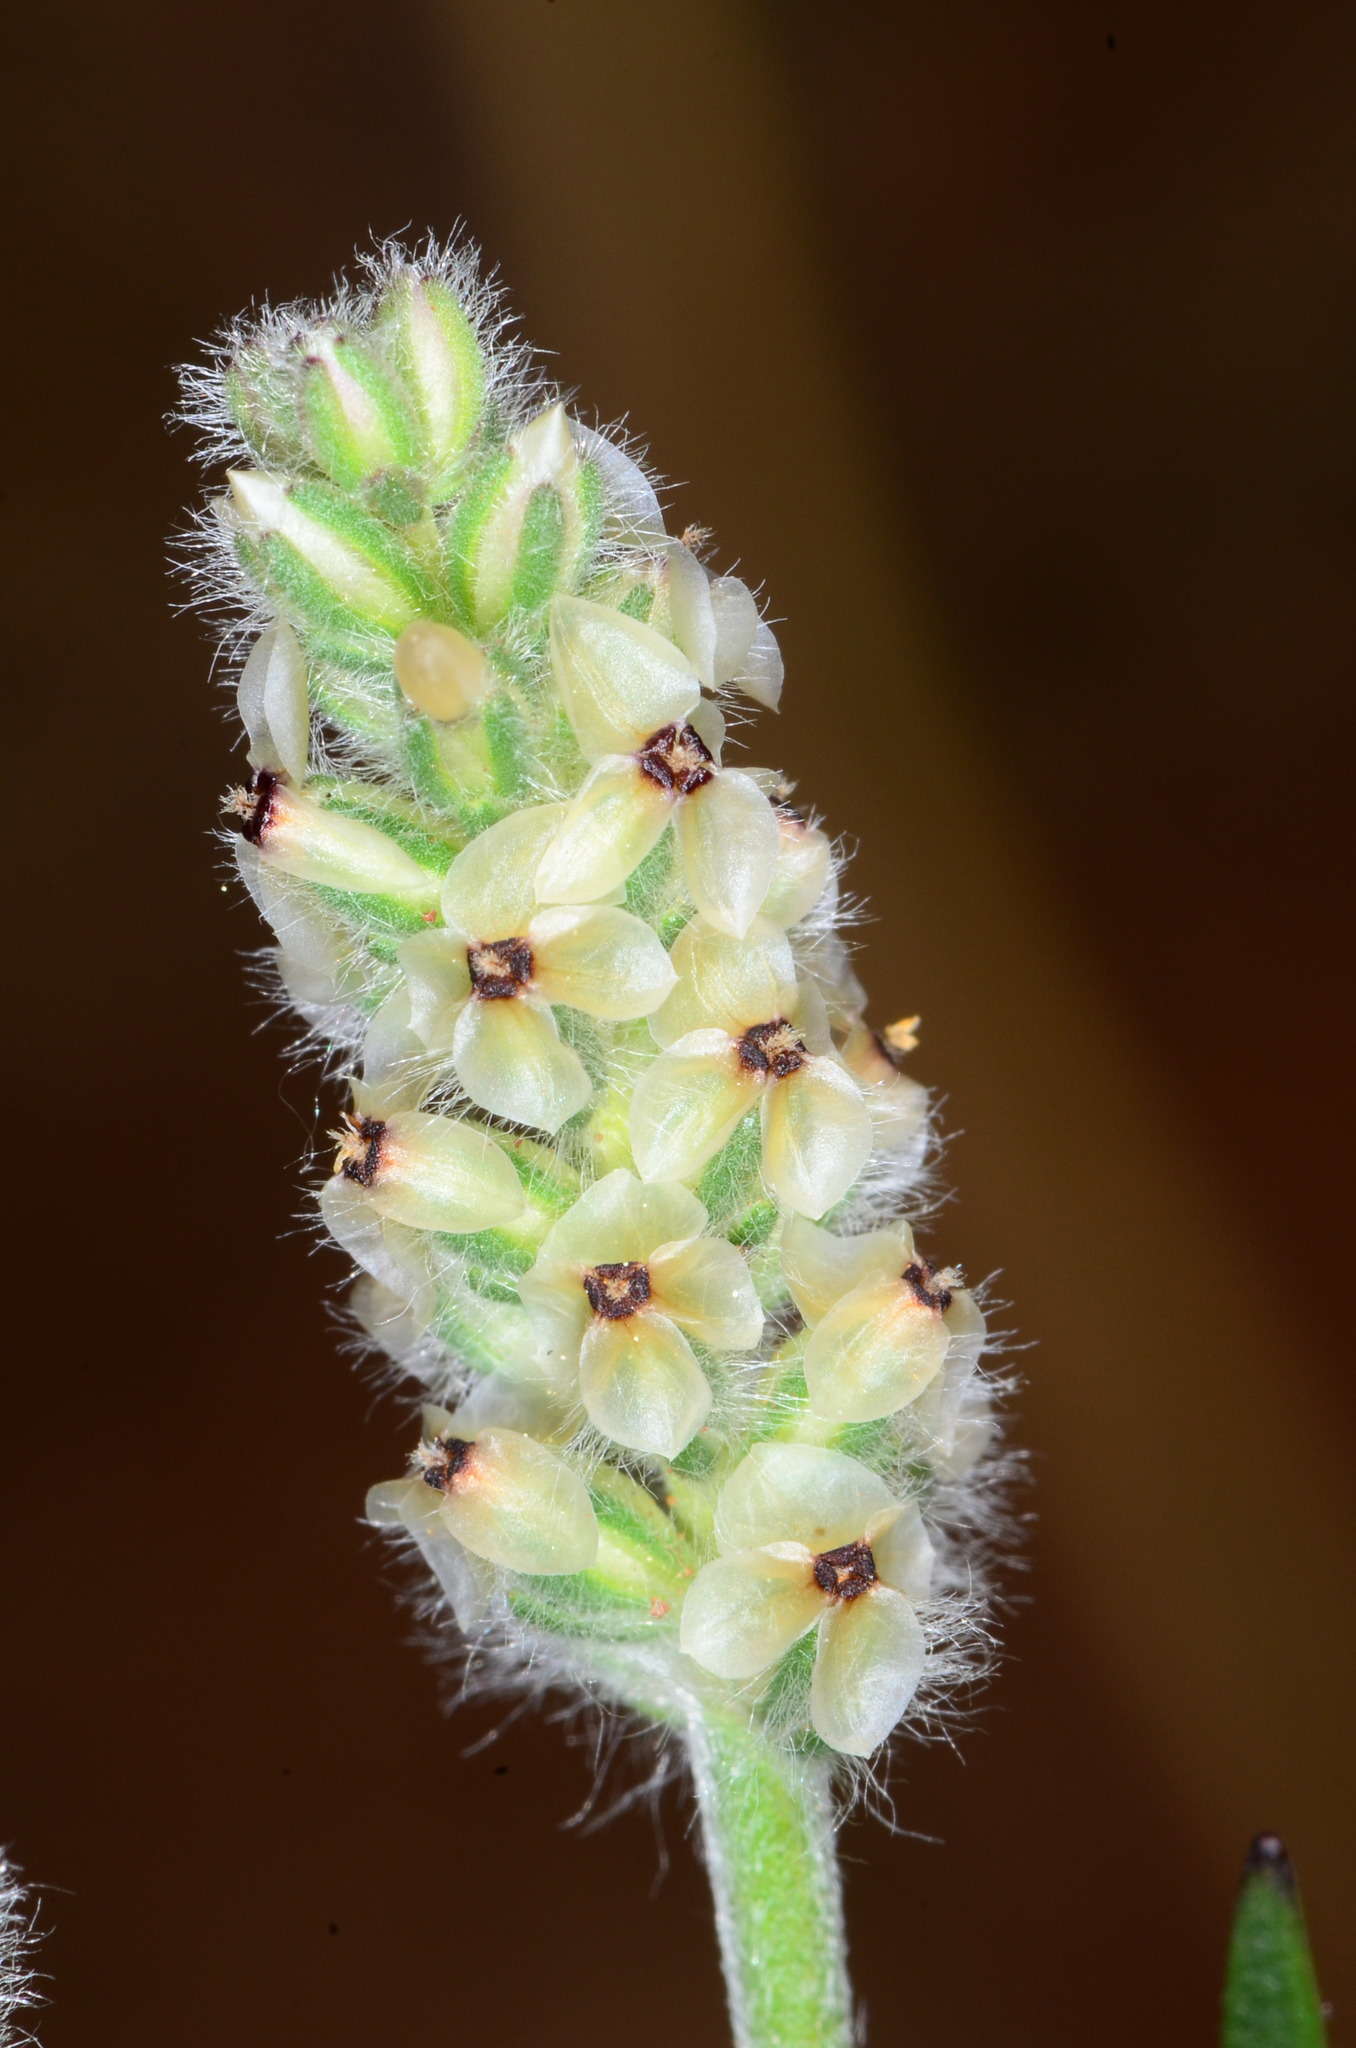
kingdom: Plantae
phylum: Tracheophyta
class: Magnoliopsida
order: Lamiales
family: Plantaginaceae
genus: Plantago
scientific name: Plantago erecta
